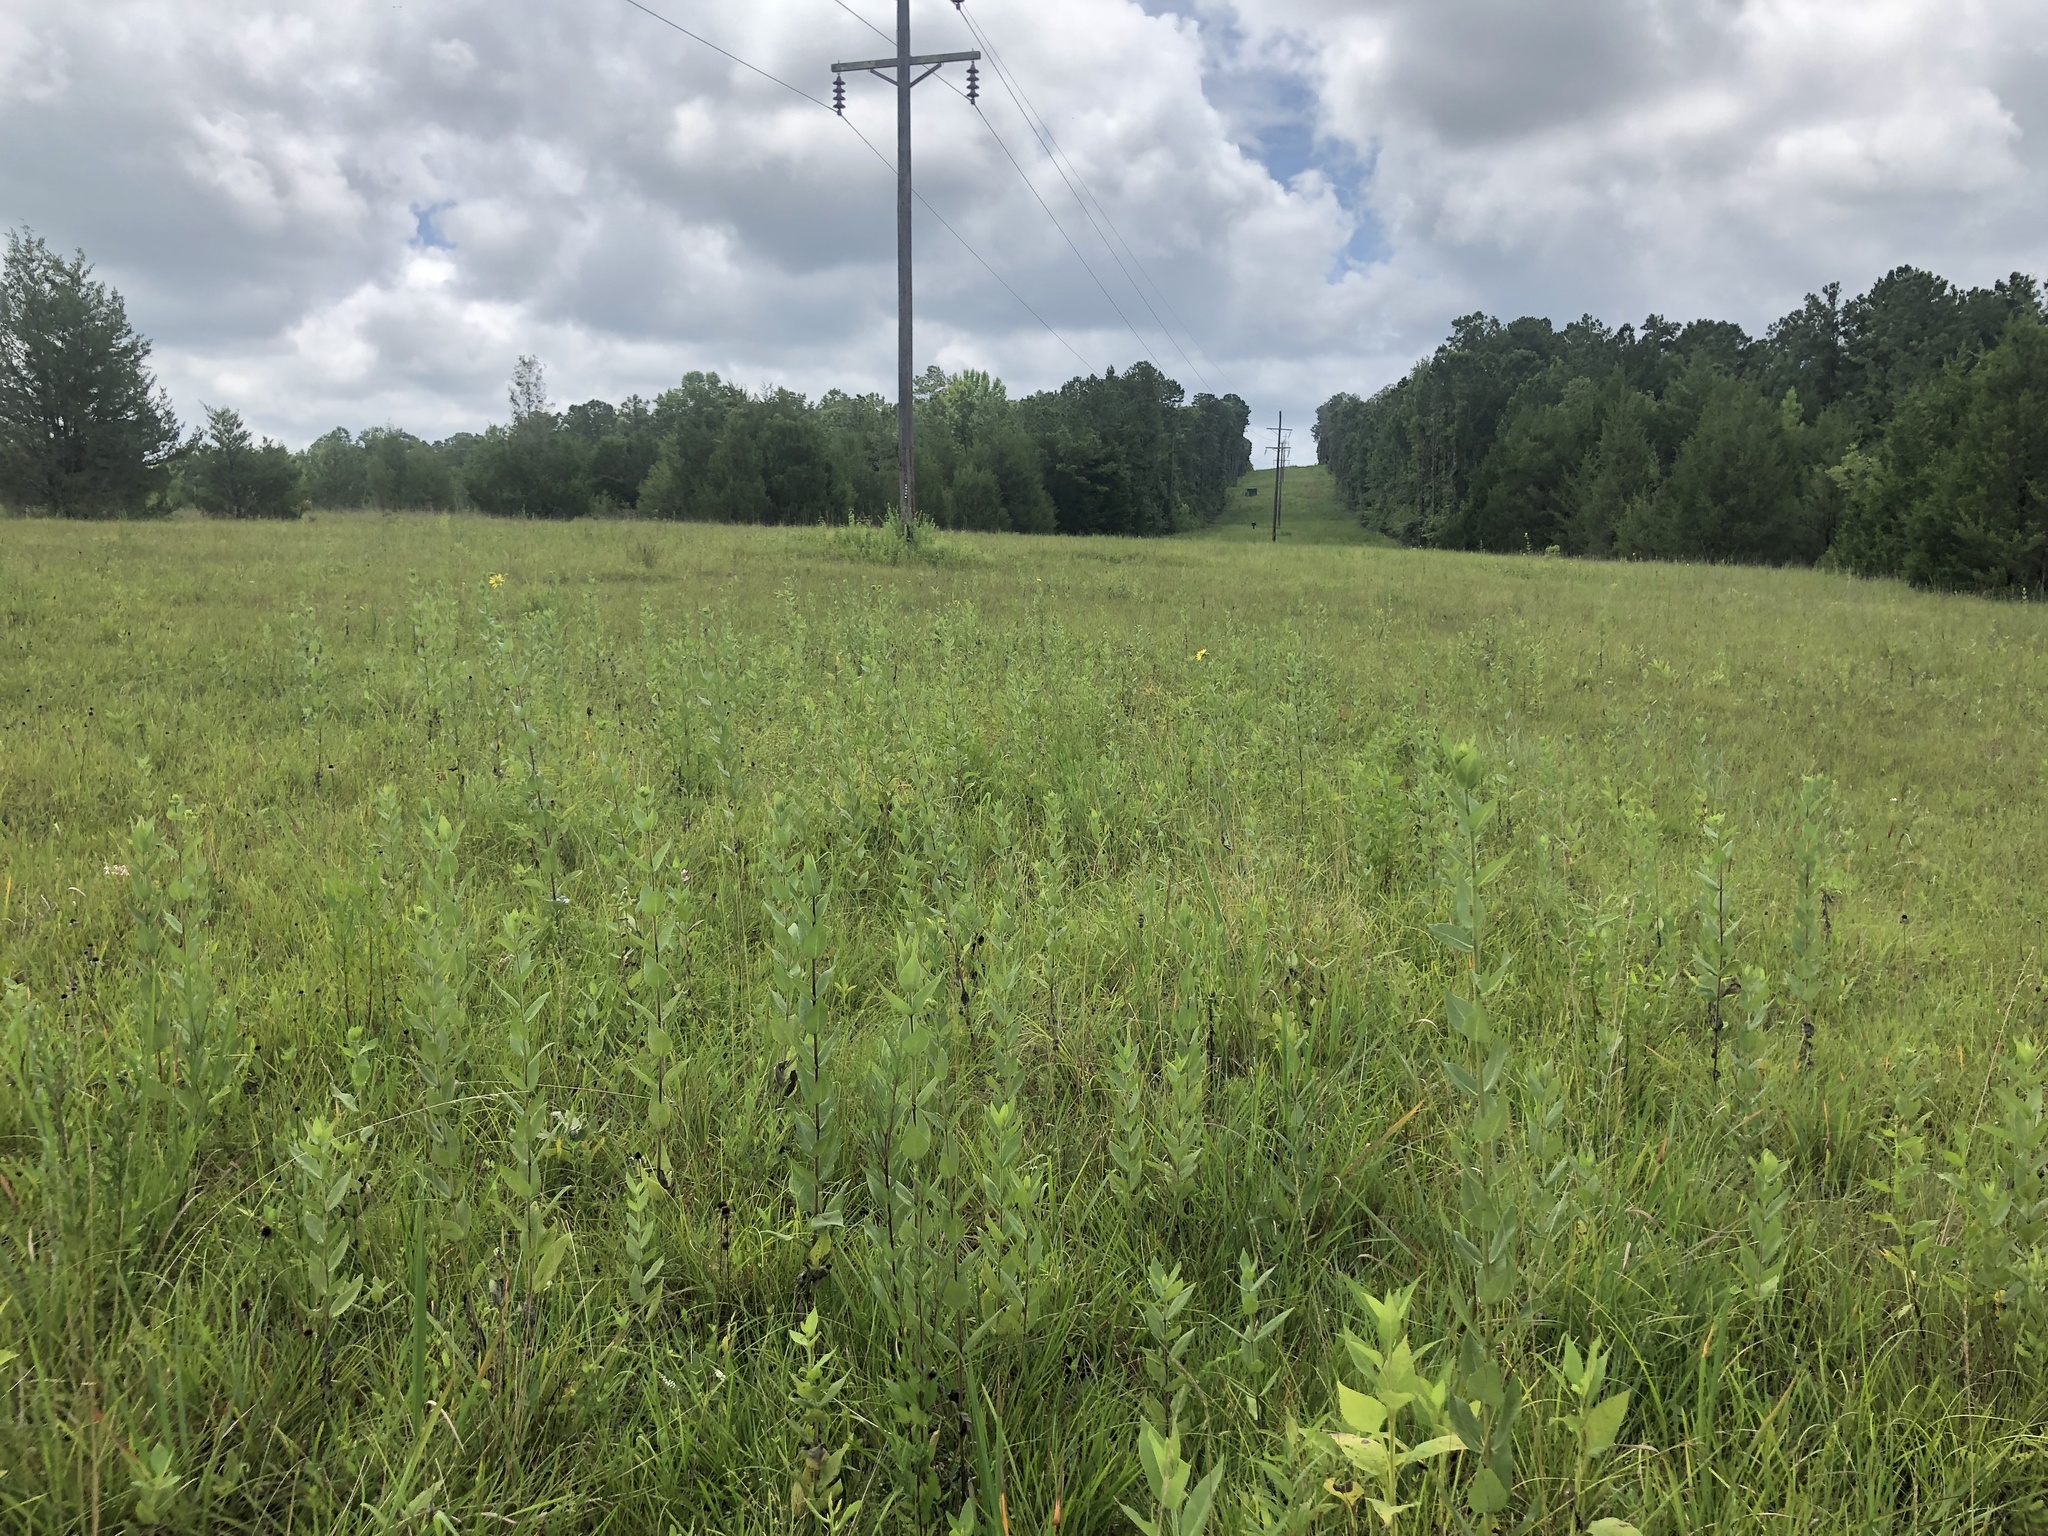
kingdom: Plantae
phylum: Tracheophyta
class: Pinopsida
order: Pinales
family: Cupressaceae
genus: Juniperus
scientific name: Juniperus virginiana
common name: Red juniper
